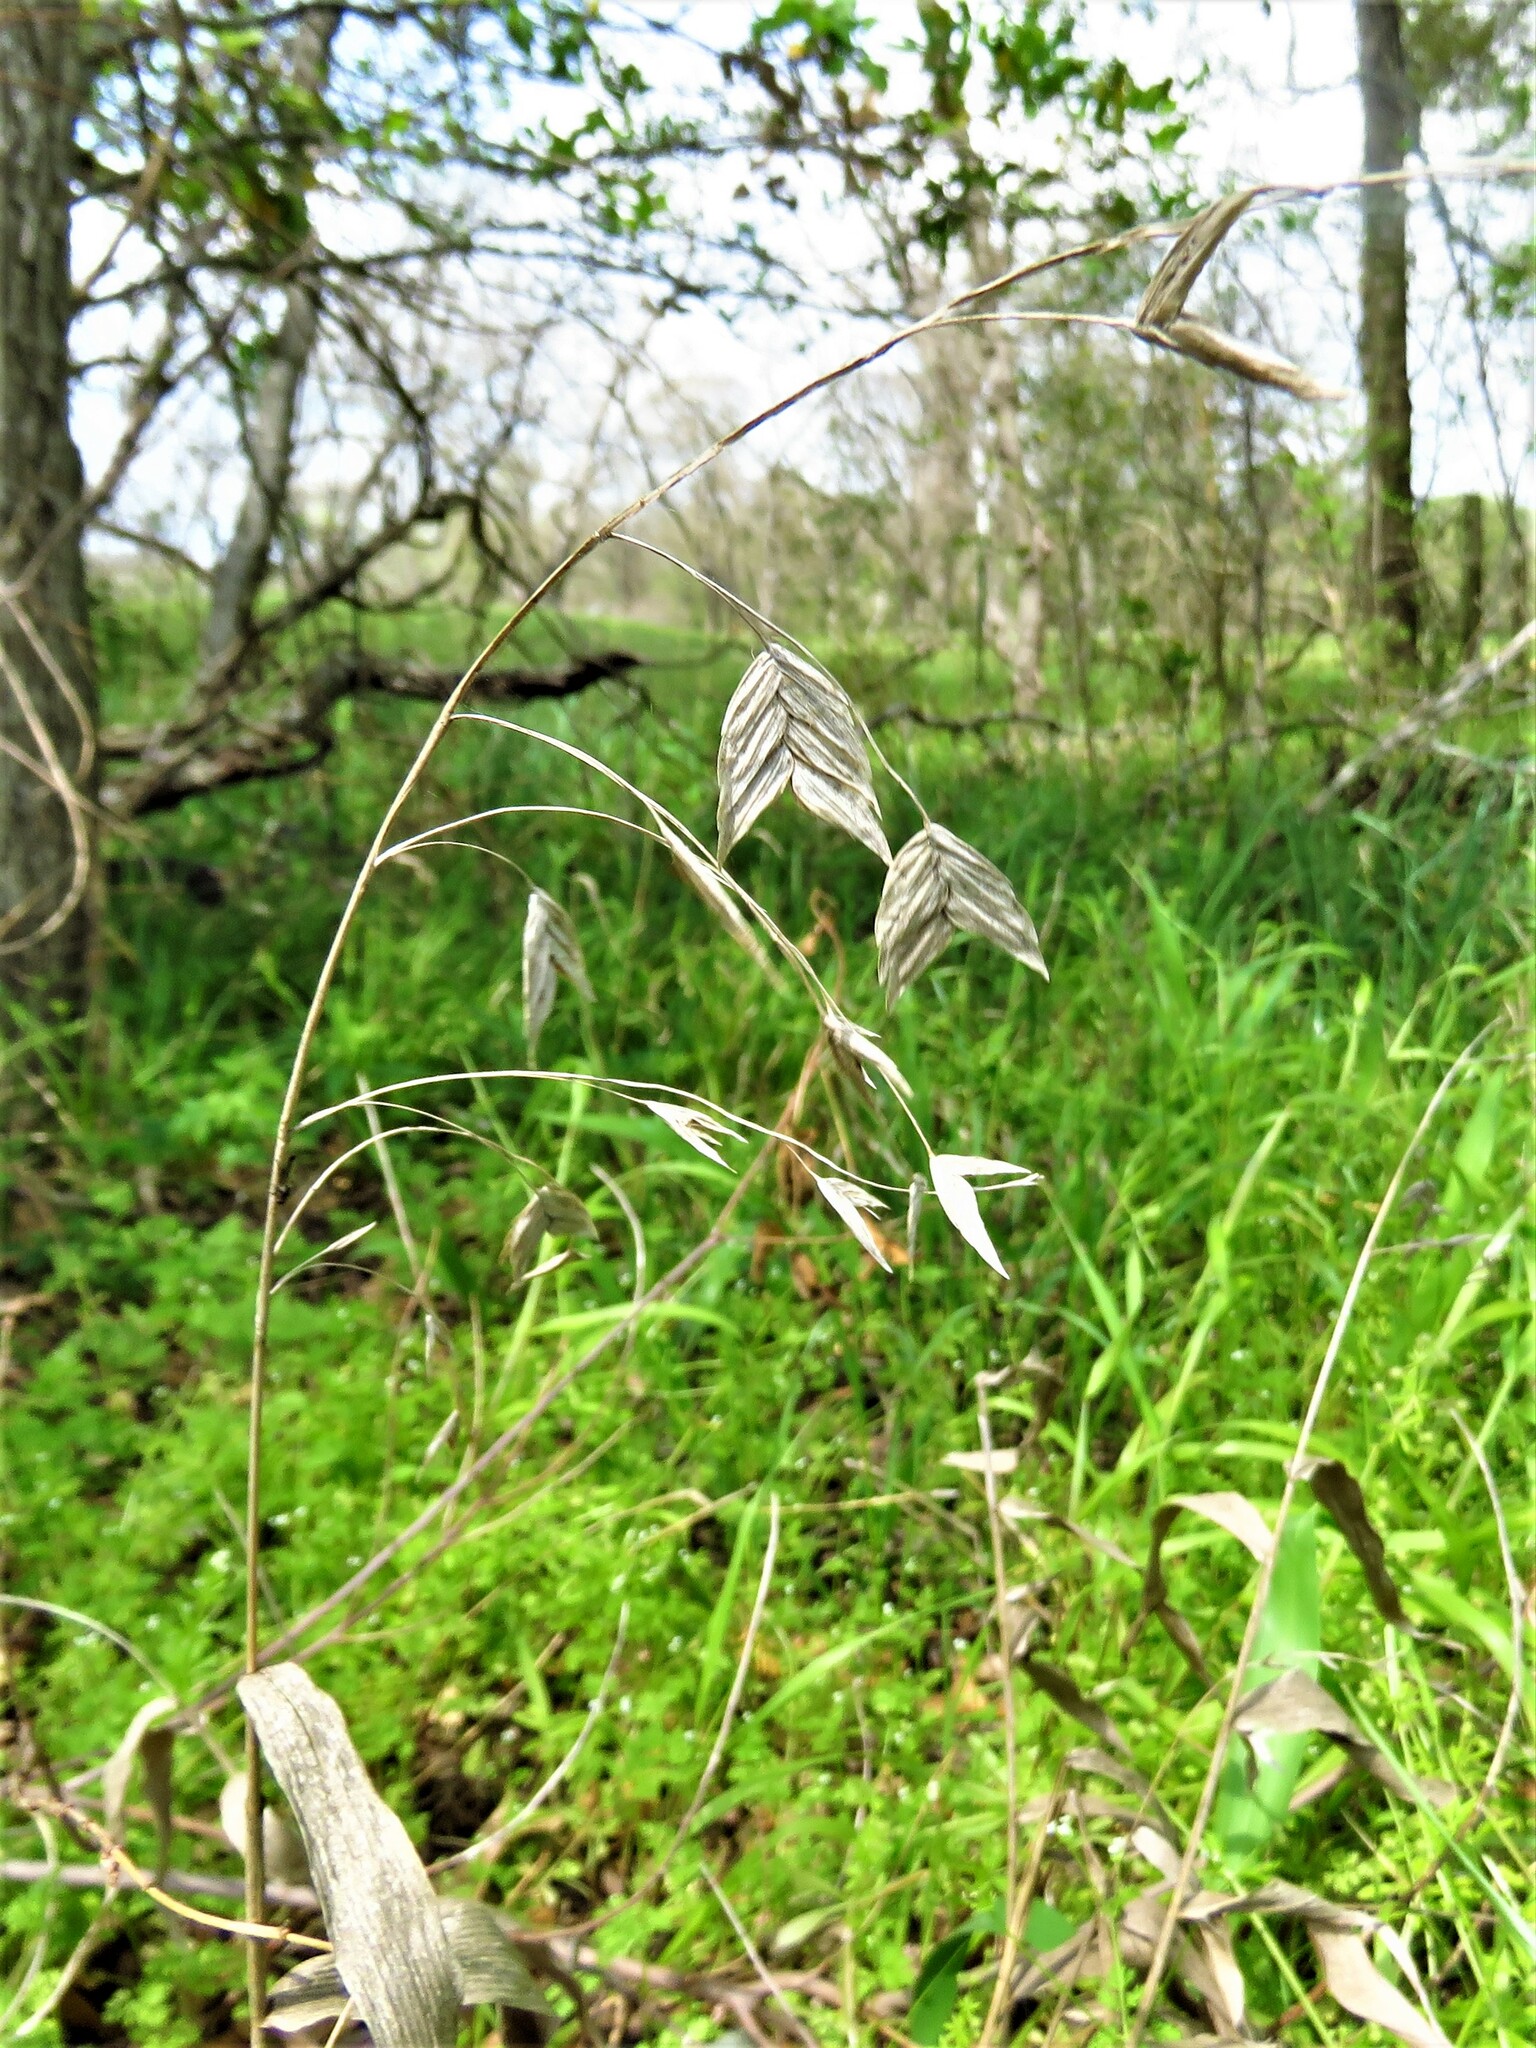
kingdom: Plantae
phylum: Tracheophyta
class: Liliopsida
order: Poales
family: Poaceae
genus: Chasmanthium
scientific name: Chasmanthium latifolium
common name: Broad-leaved chasmanthium
